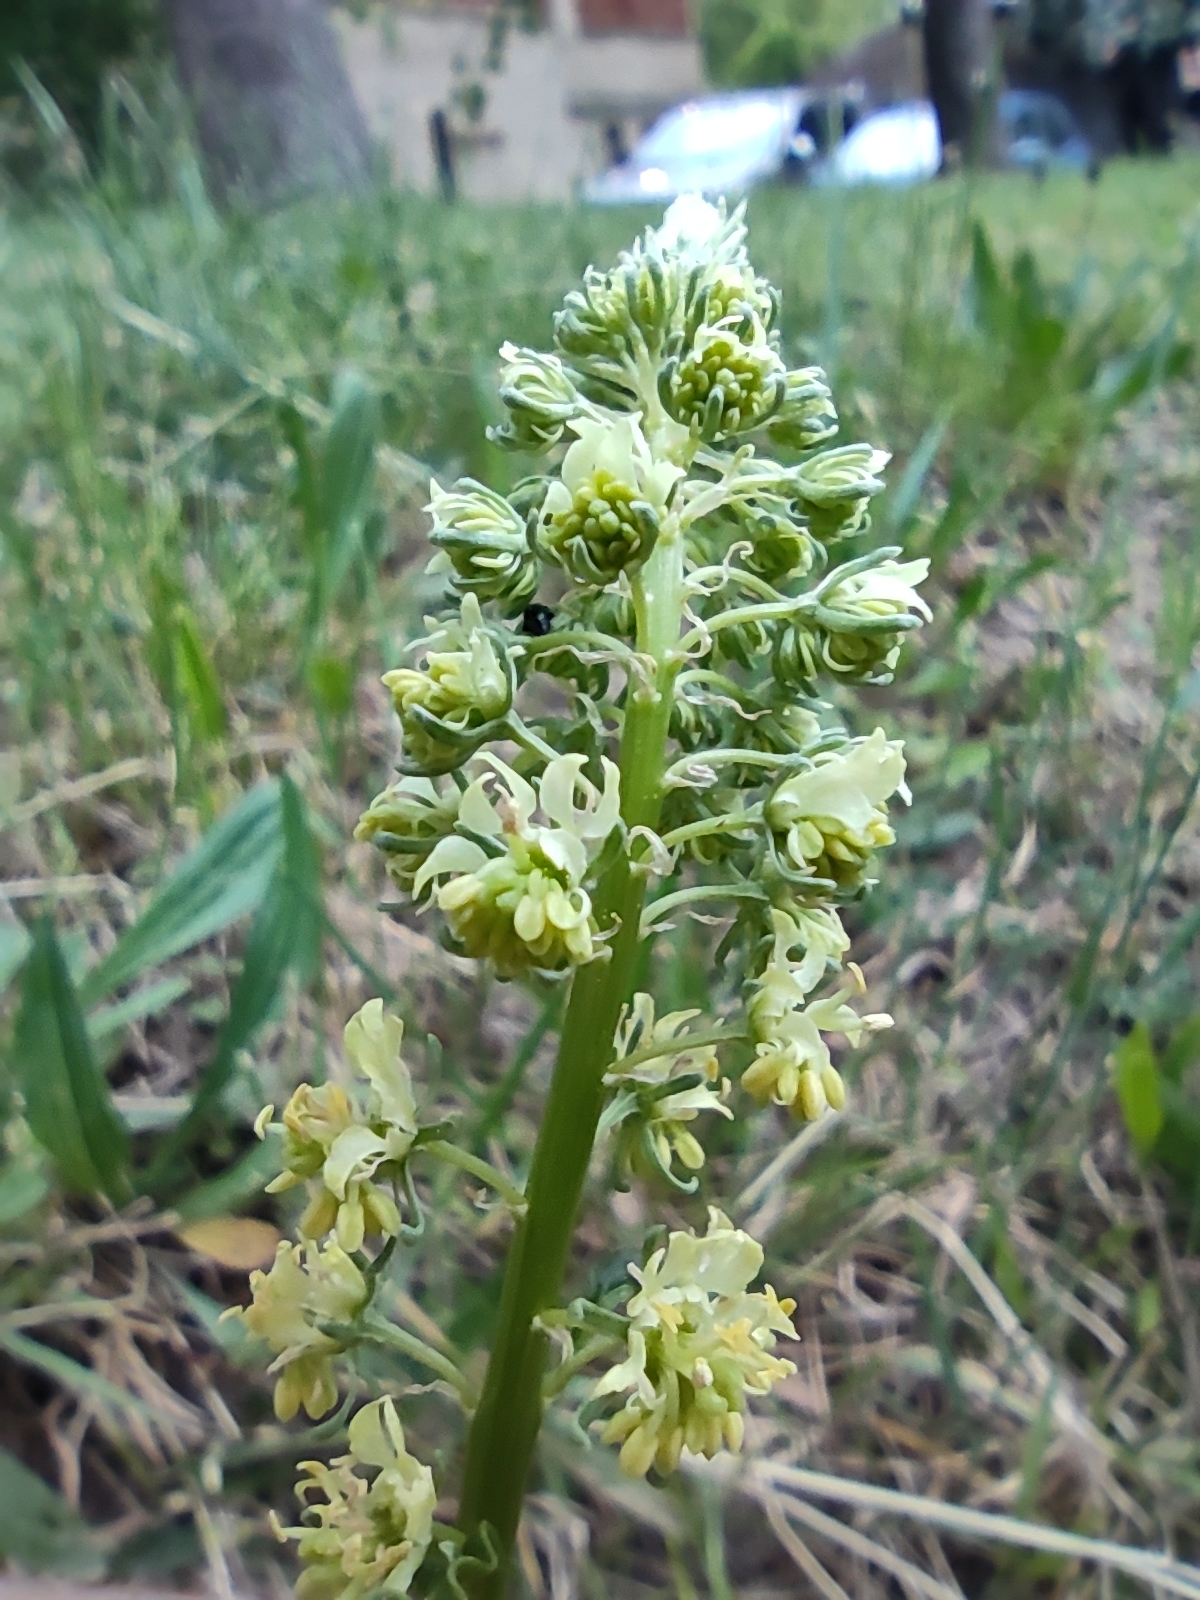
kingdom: Plantae
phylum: Tracheophyta
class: Magnoliopsida
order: Brassicales
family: Resedaceae
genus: Reseda
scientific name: Reseda lutea
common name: Wild mignonette
